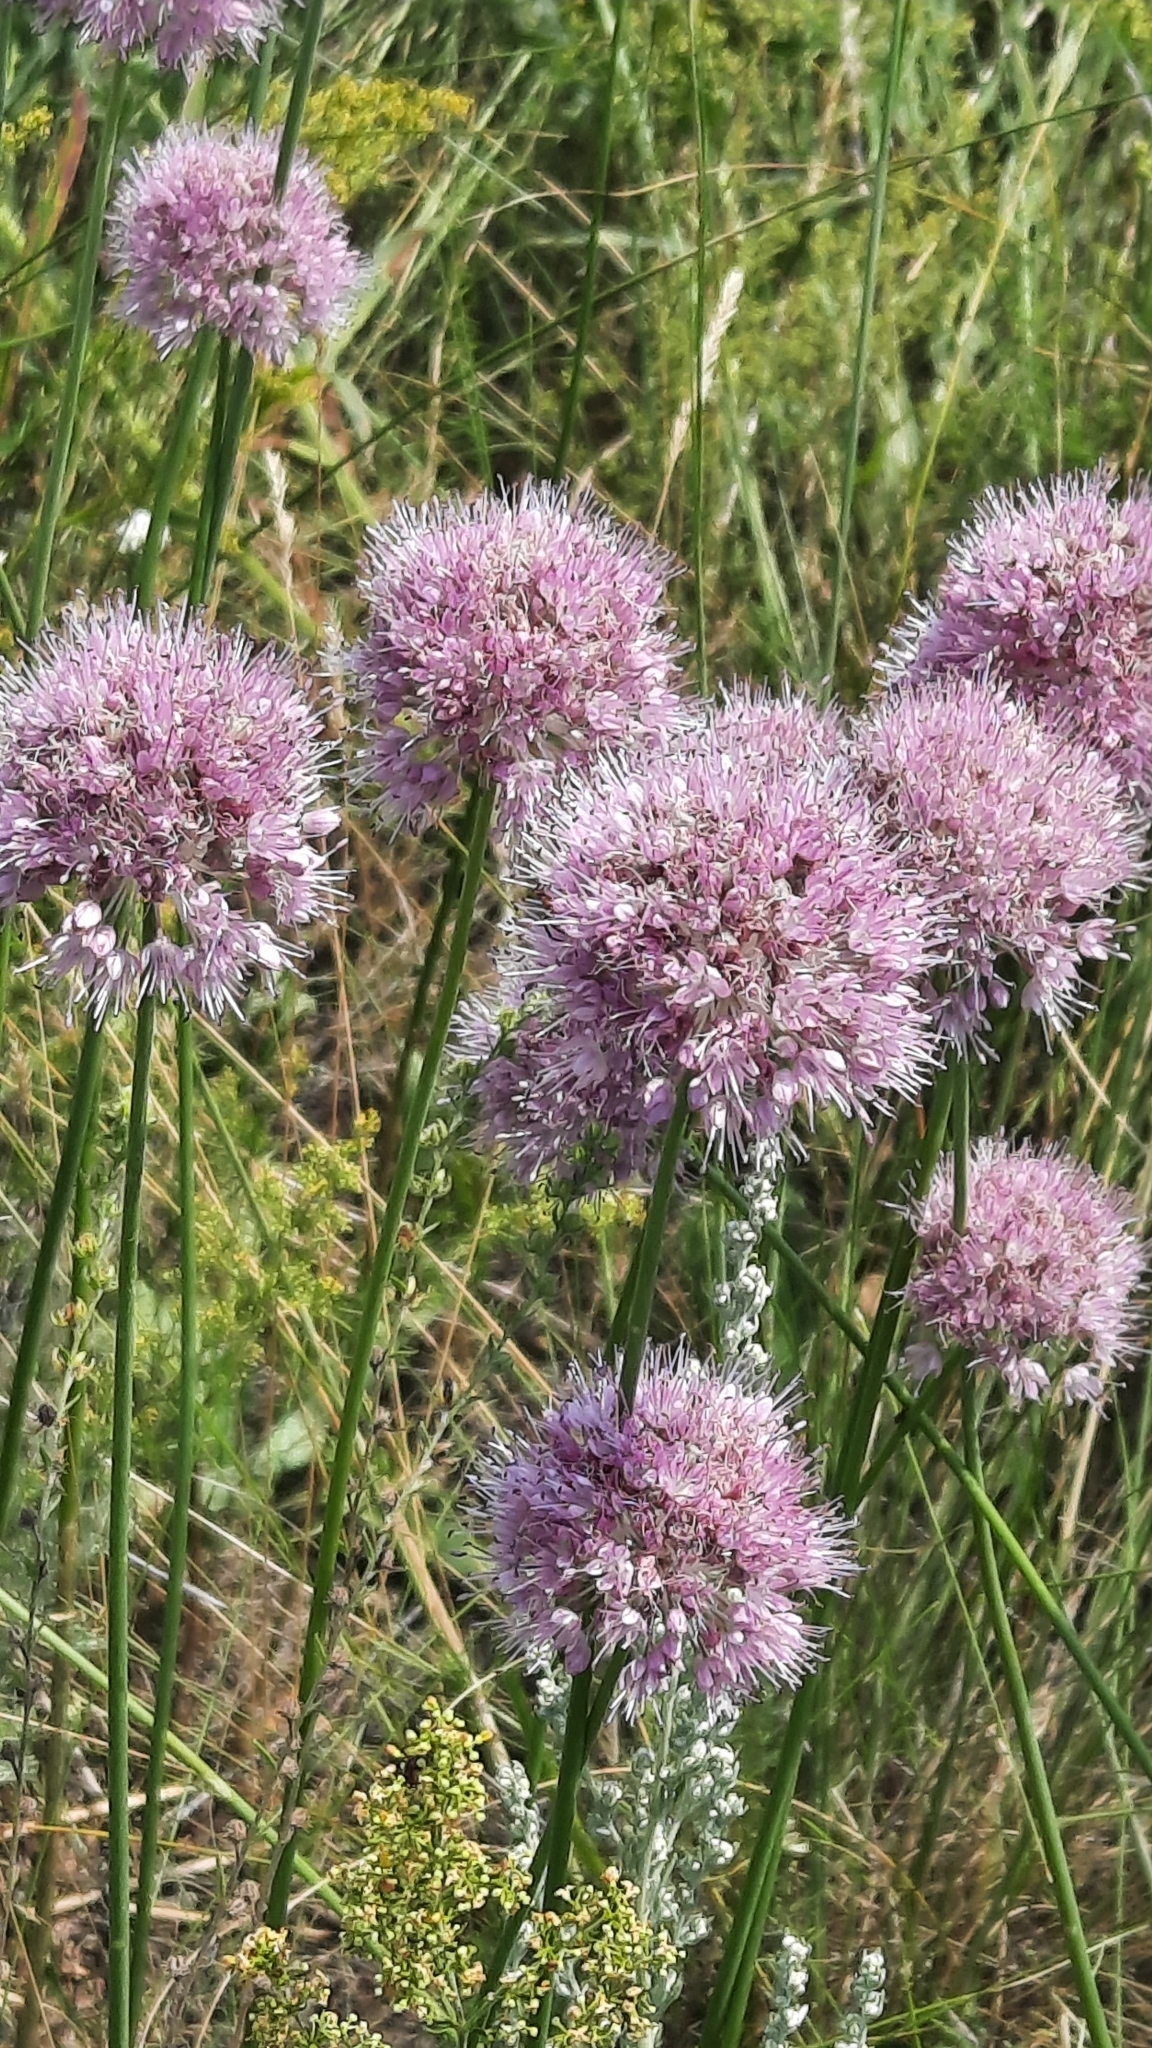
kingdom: Plantae
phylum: Tracheophyta
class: Liliopsida
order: Asparagales
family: Amaryllidaceae
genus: Allium
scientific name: Allium lineare
